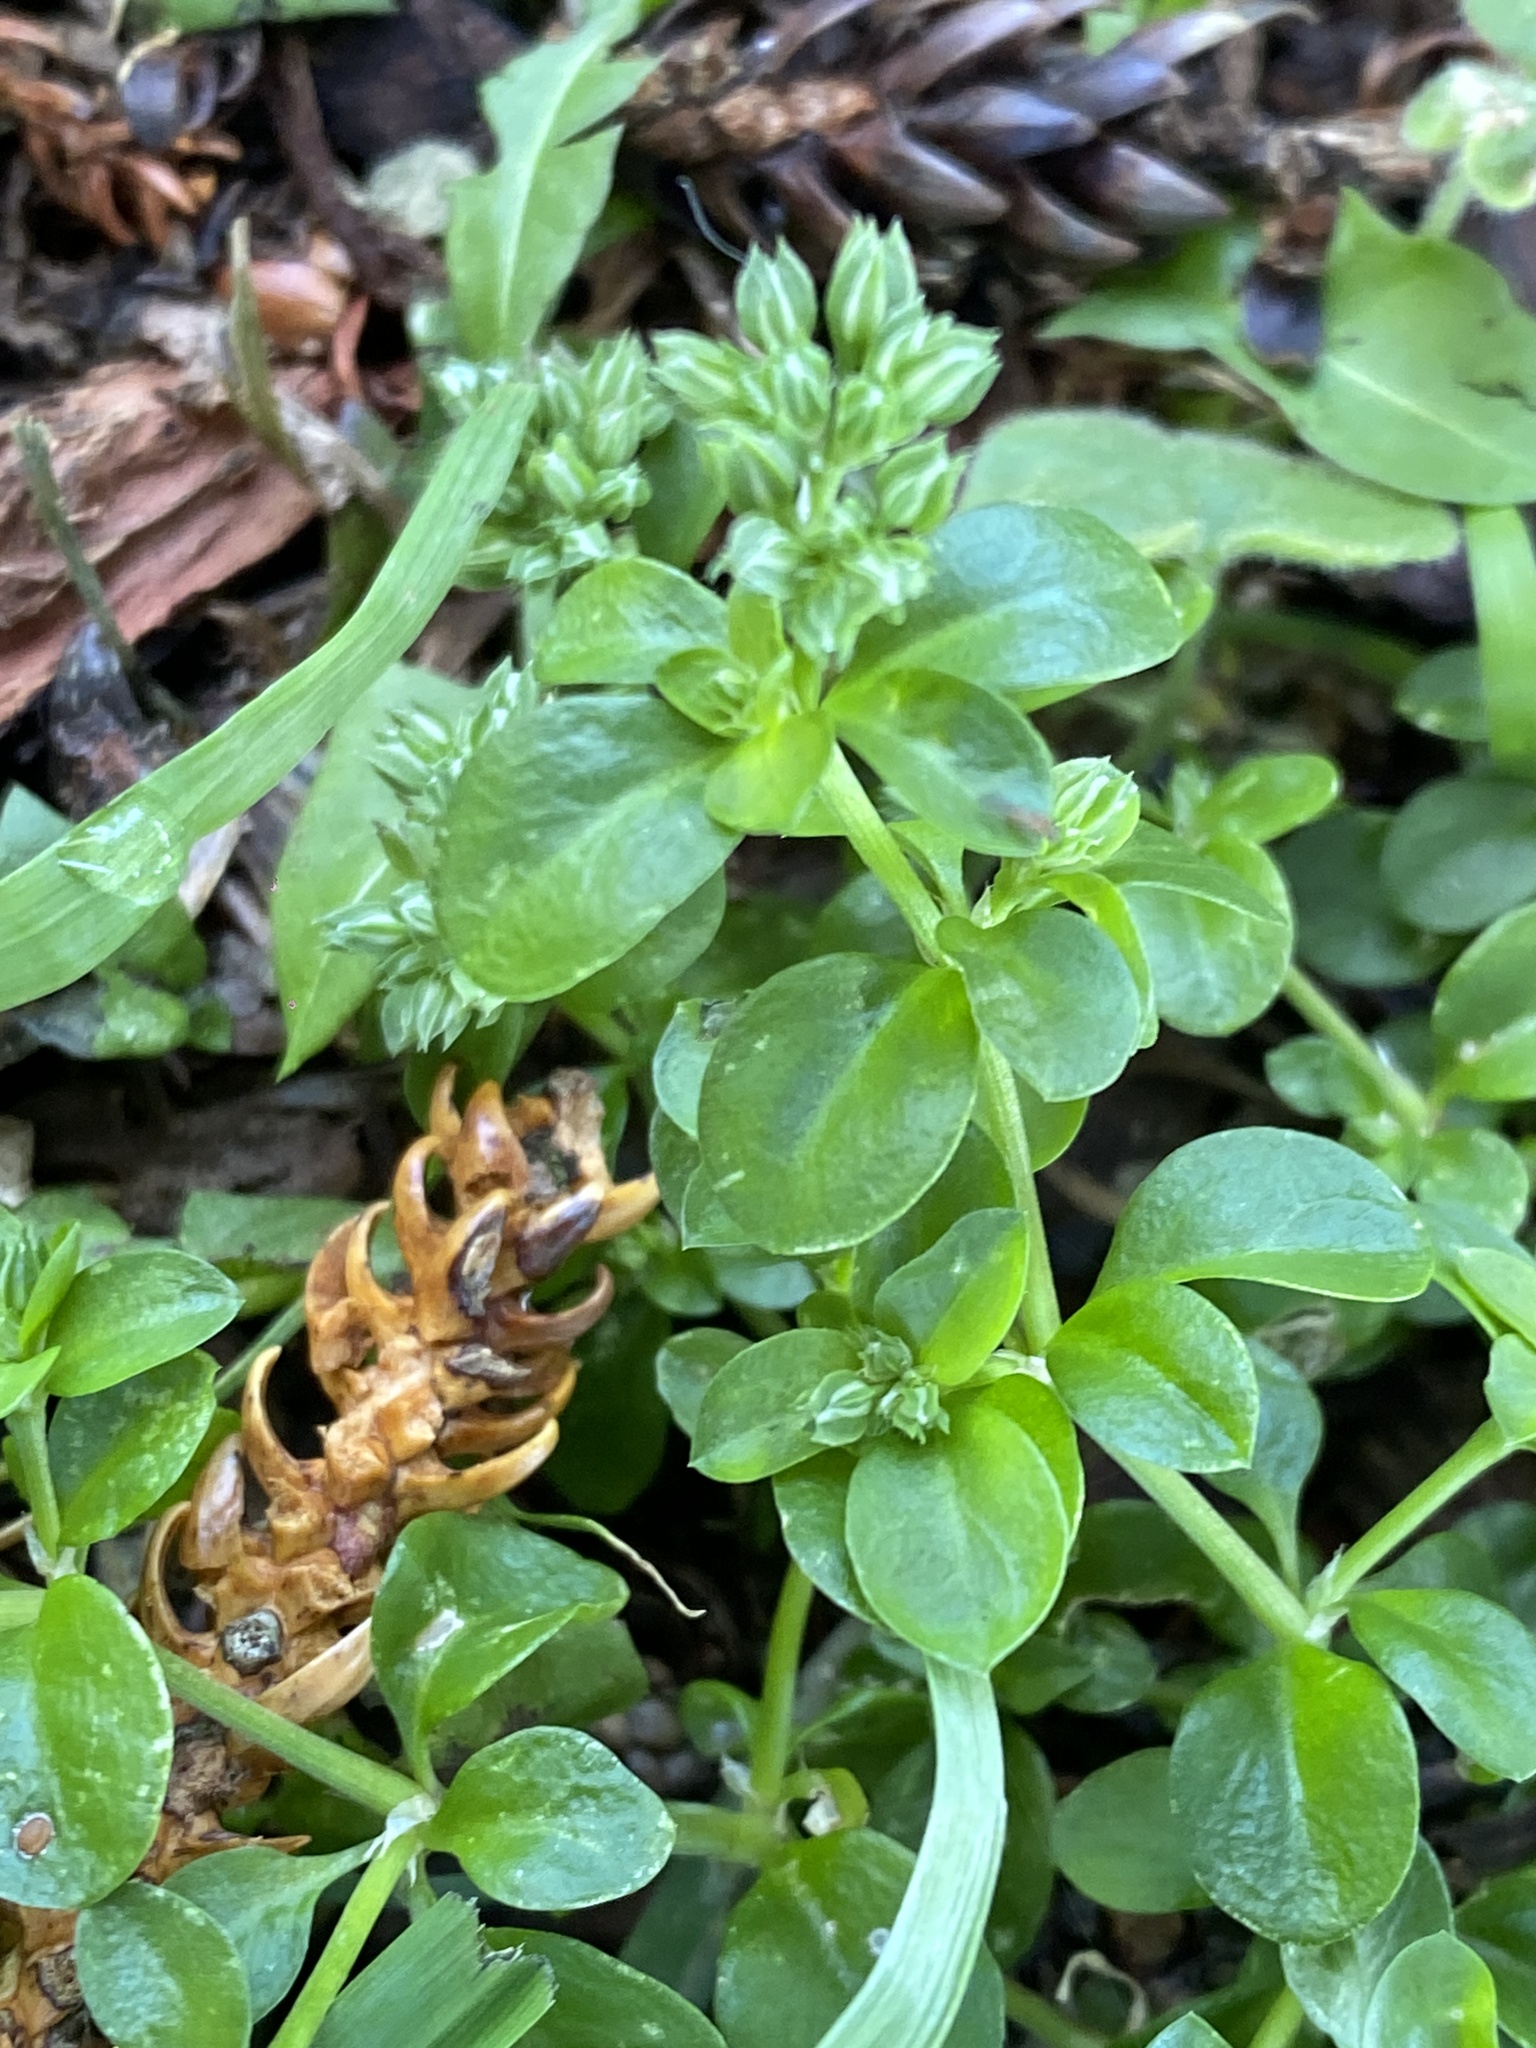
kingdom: Plantae
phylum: Tracheophyta
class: Magnoliopsida
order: Caryophyllales
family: Caryophyllaceae
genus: Polycarpon
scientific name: Polycarpon tetraphyllum
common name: Four-leaved all-seed
